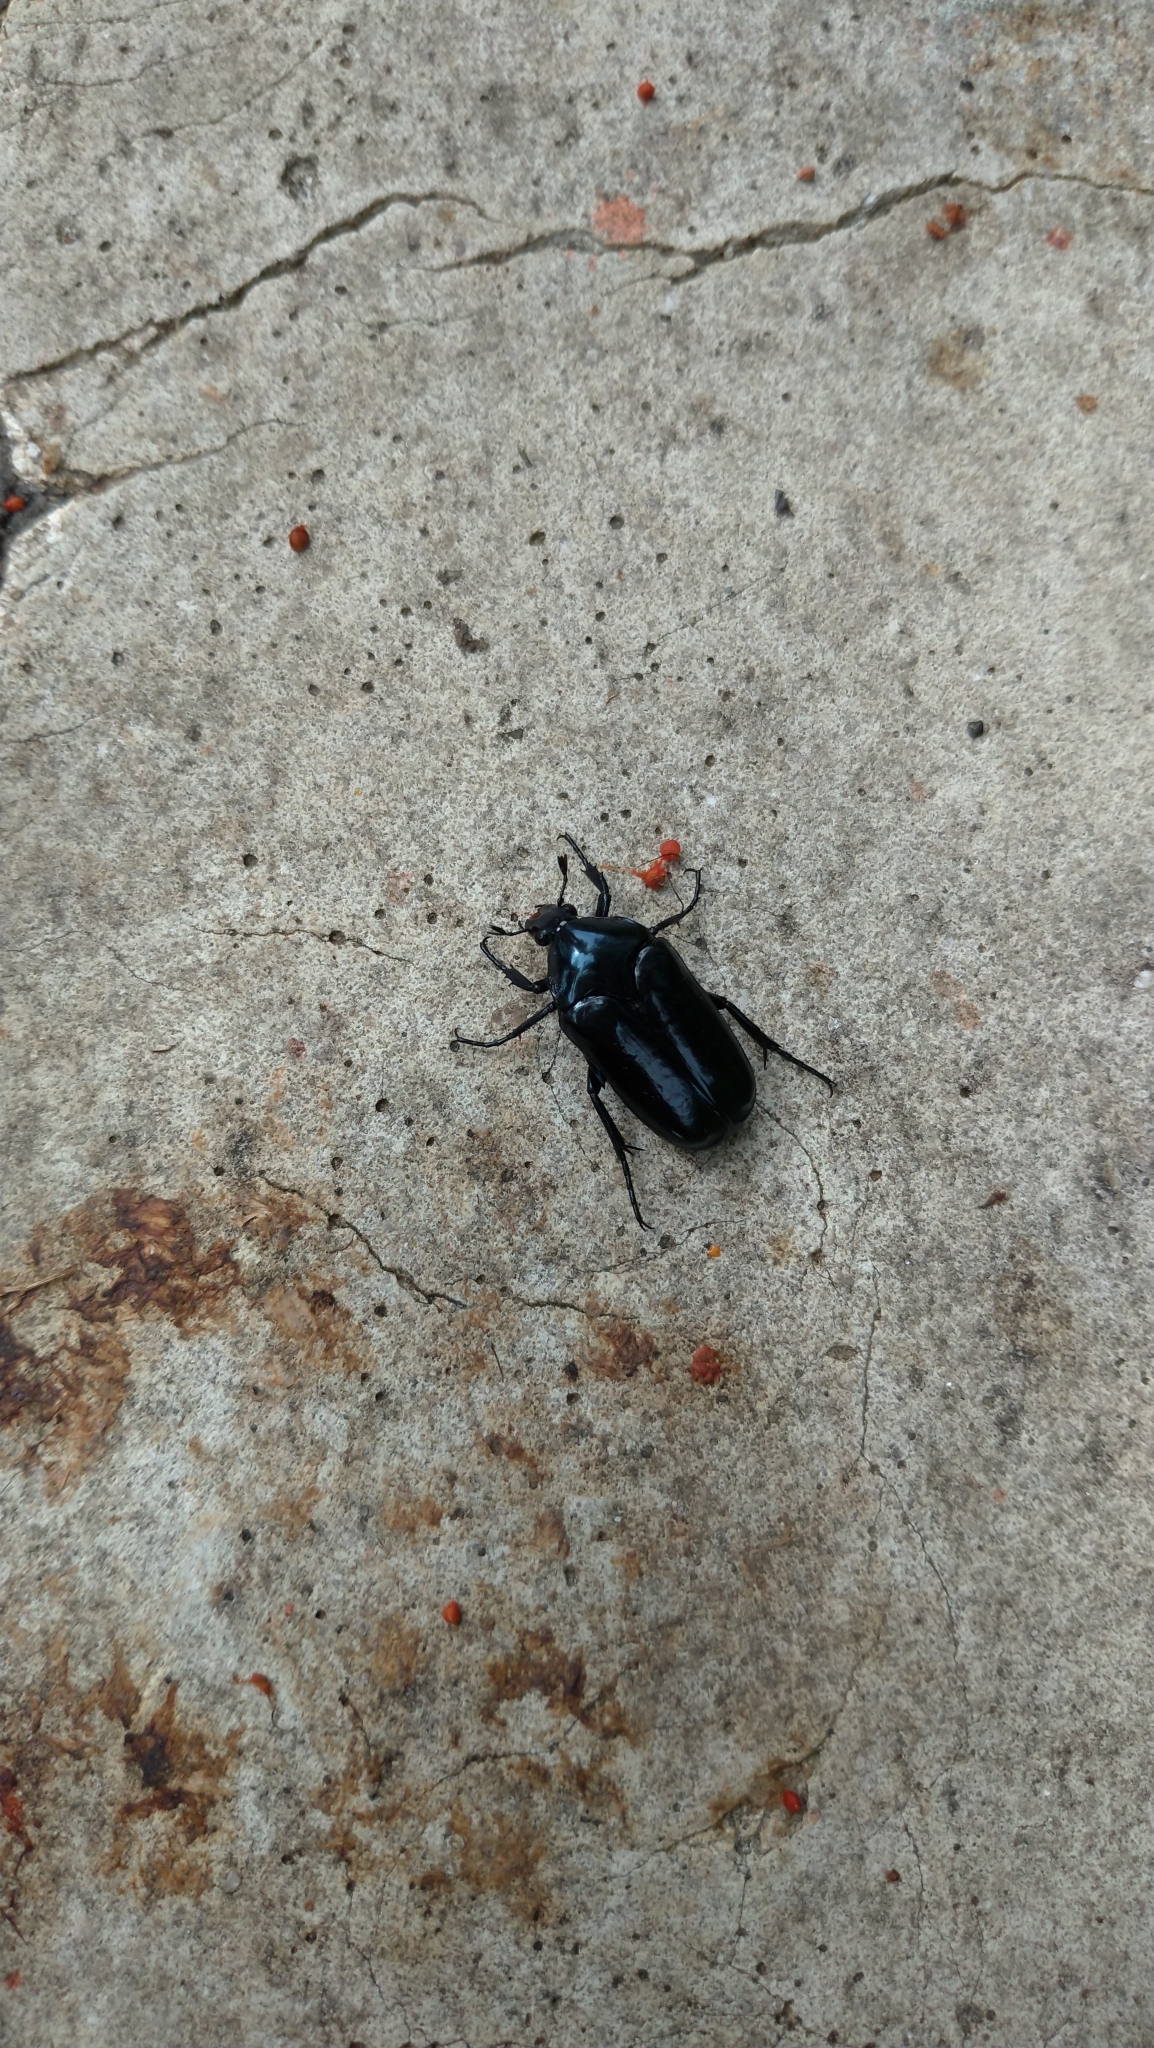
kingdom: Animalia
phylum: Arthropoda
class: Insecta
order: Coleoptera
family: Scarabaeidae
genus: Macronota
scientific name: Macronota shangaicus
